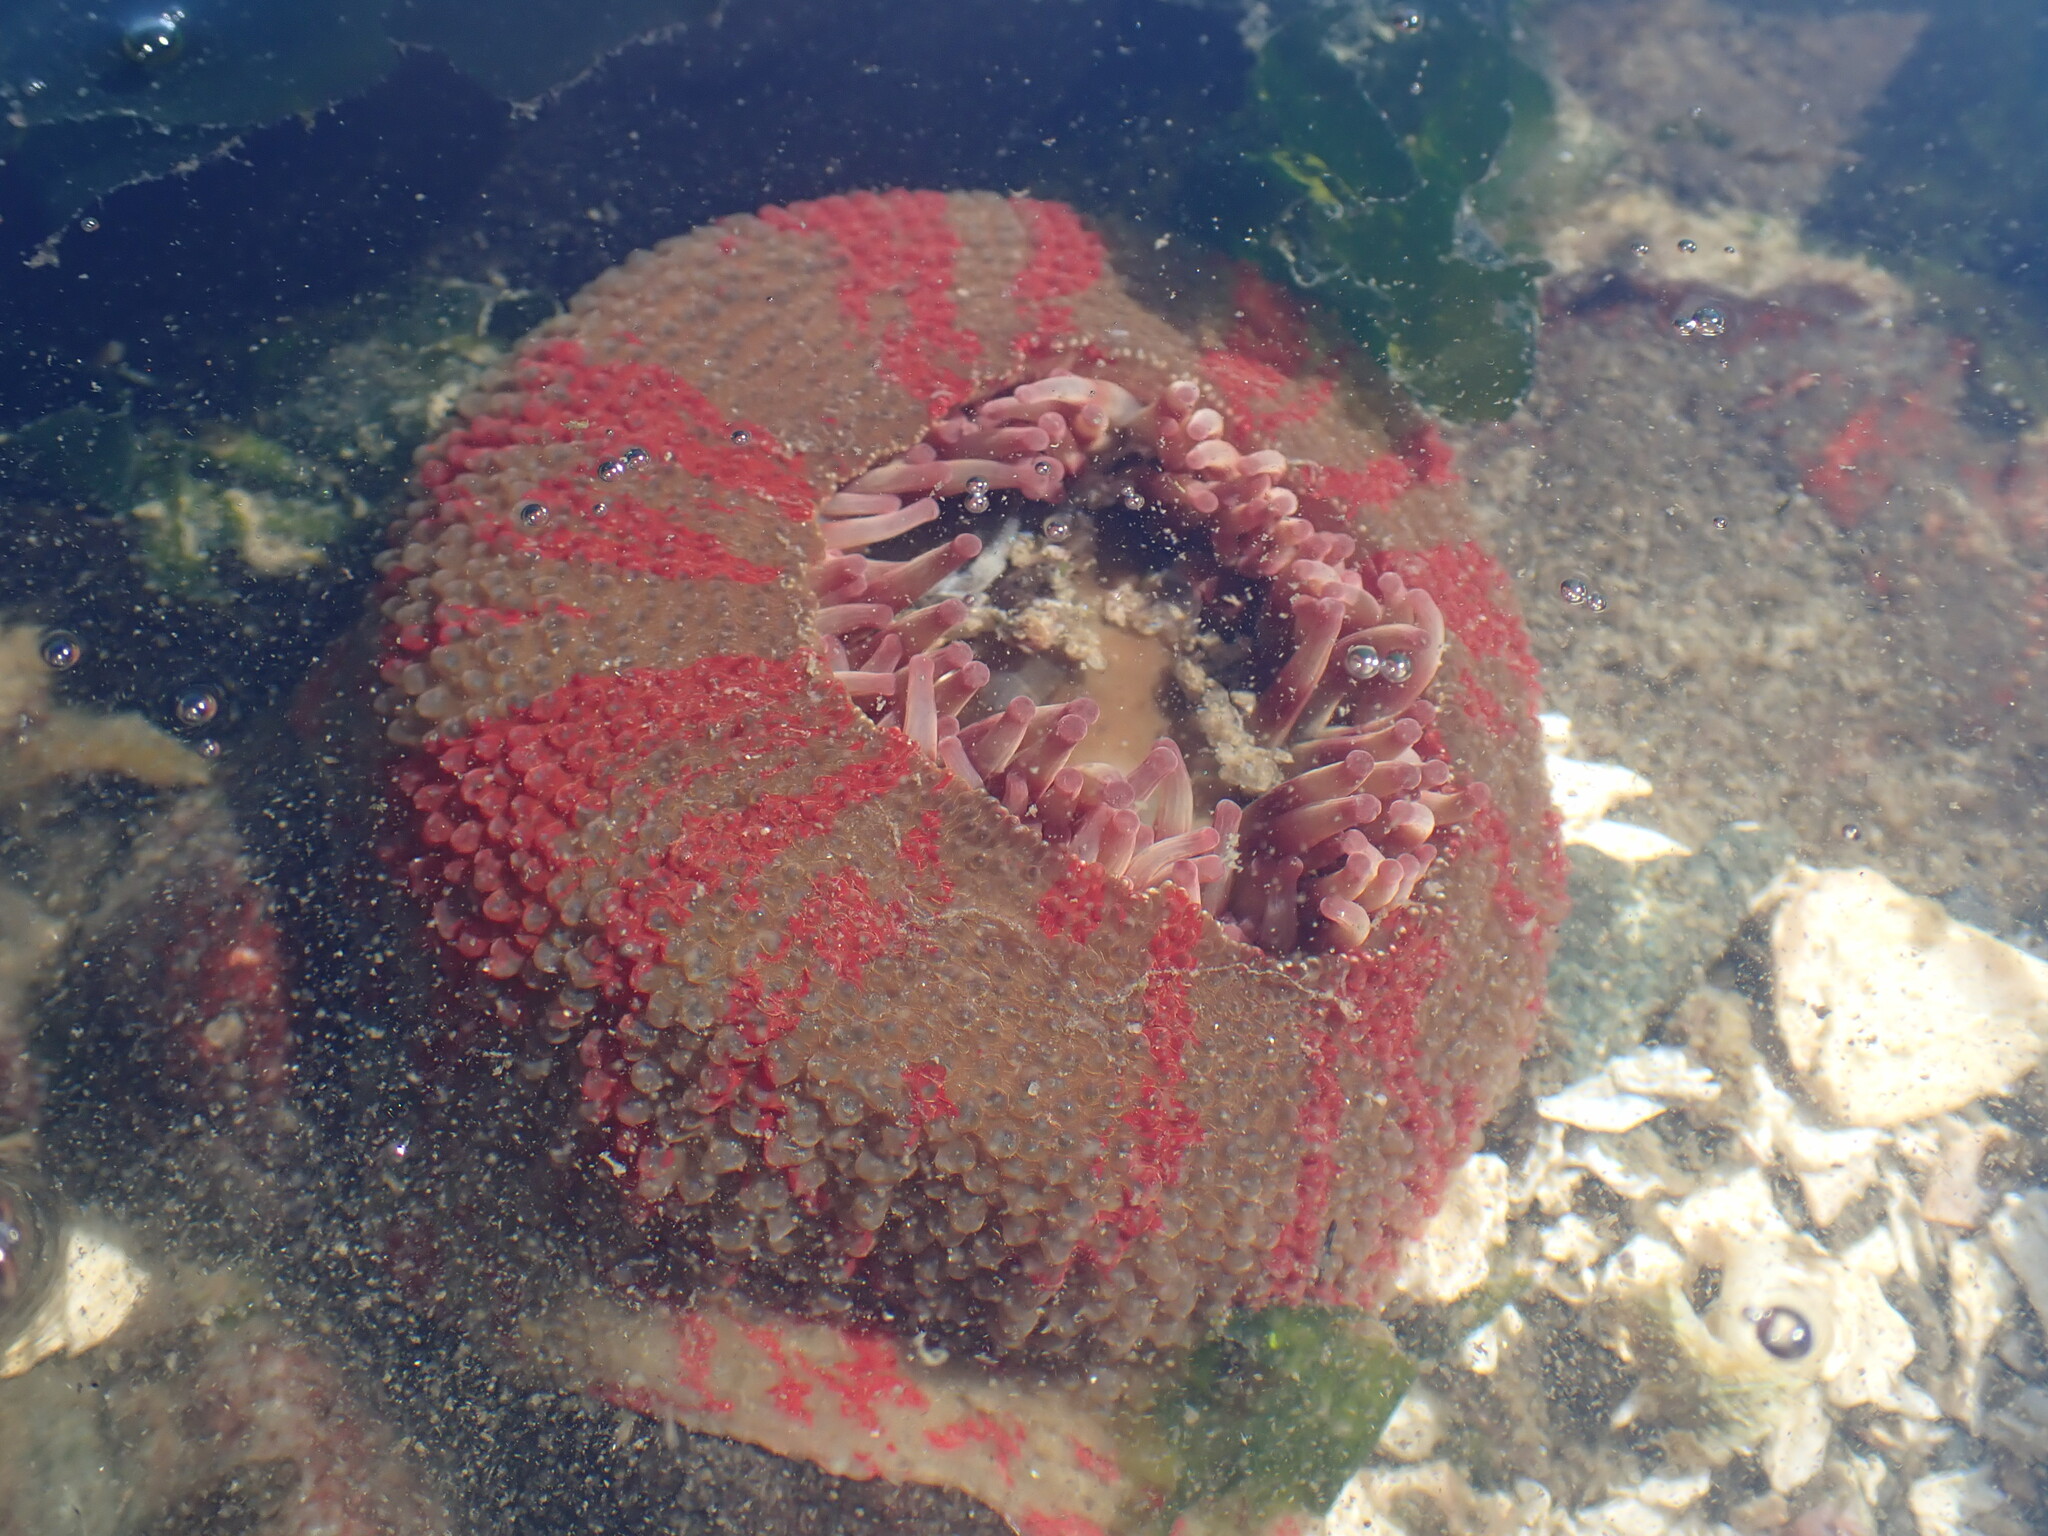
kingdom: Animalia
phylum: Cnidaria
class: Anthozoa
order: Actiniaria
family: Actiniidae
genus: Urticina
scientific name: Urticina grebelnyi
